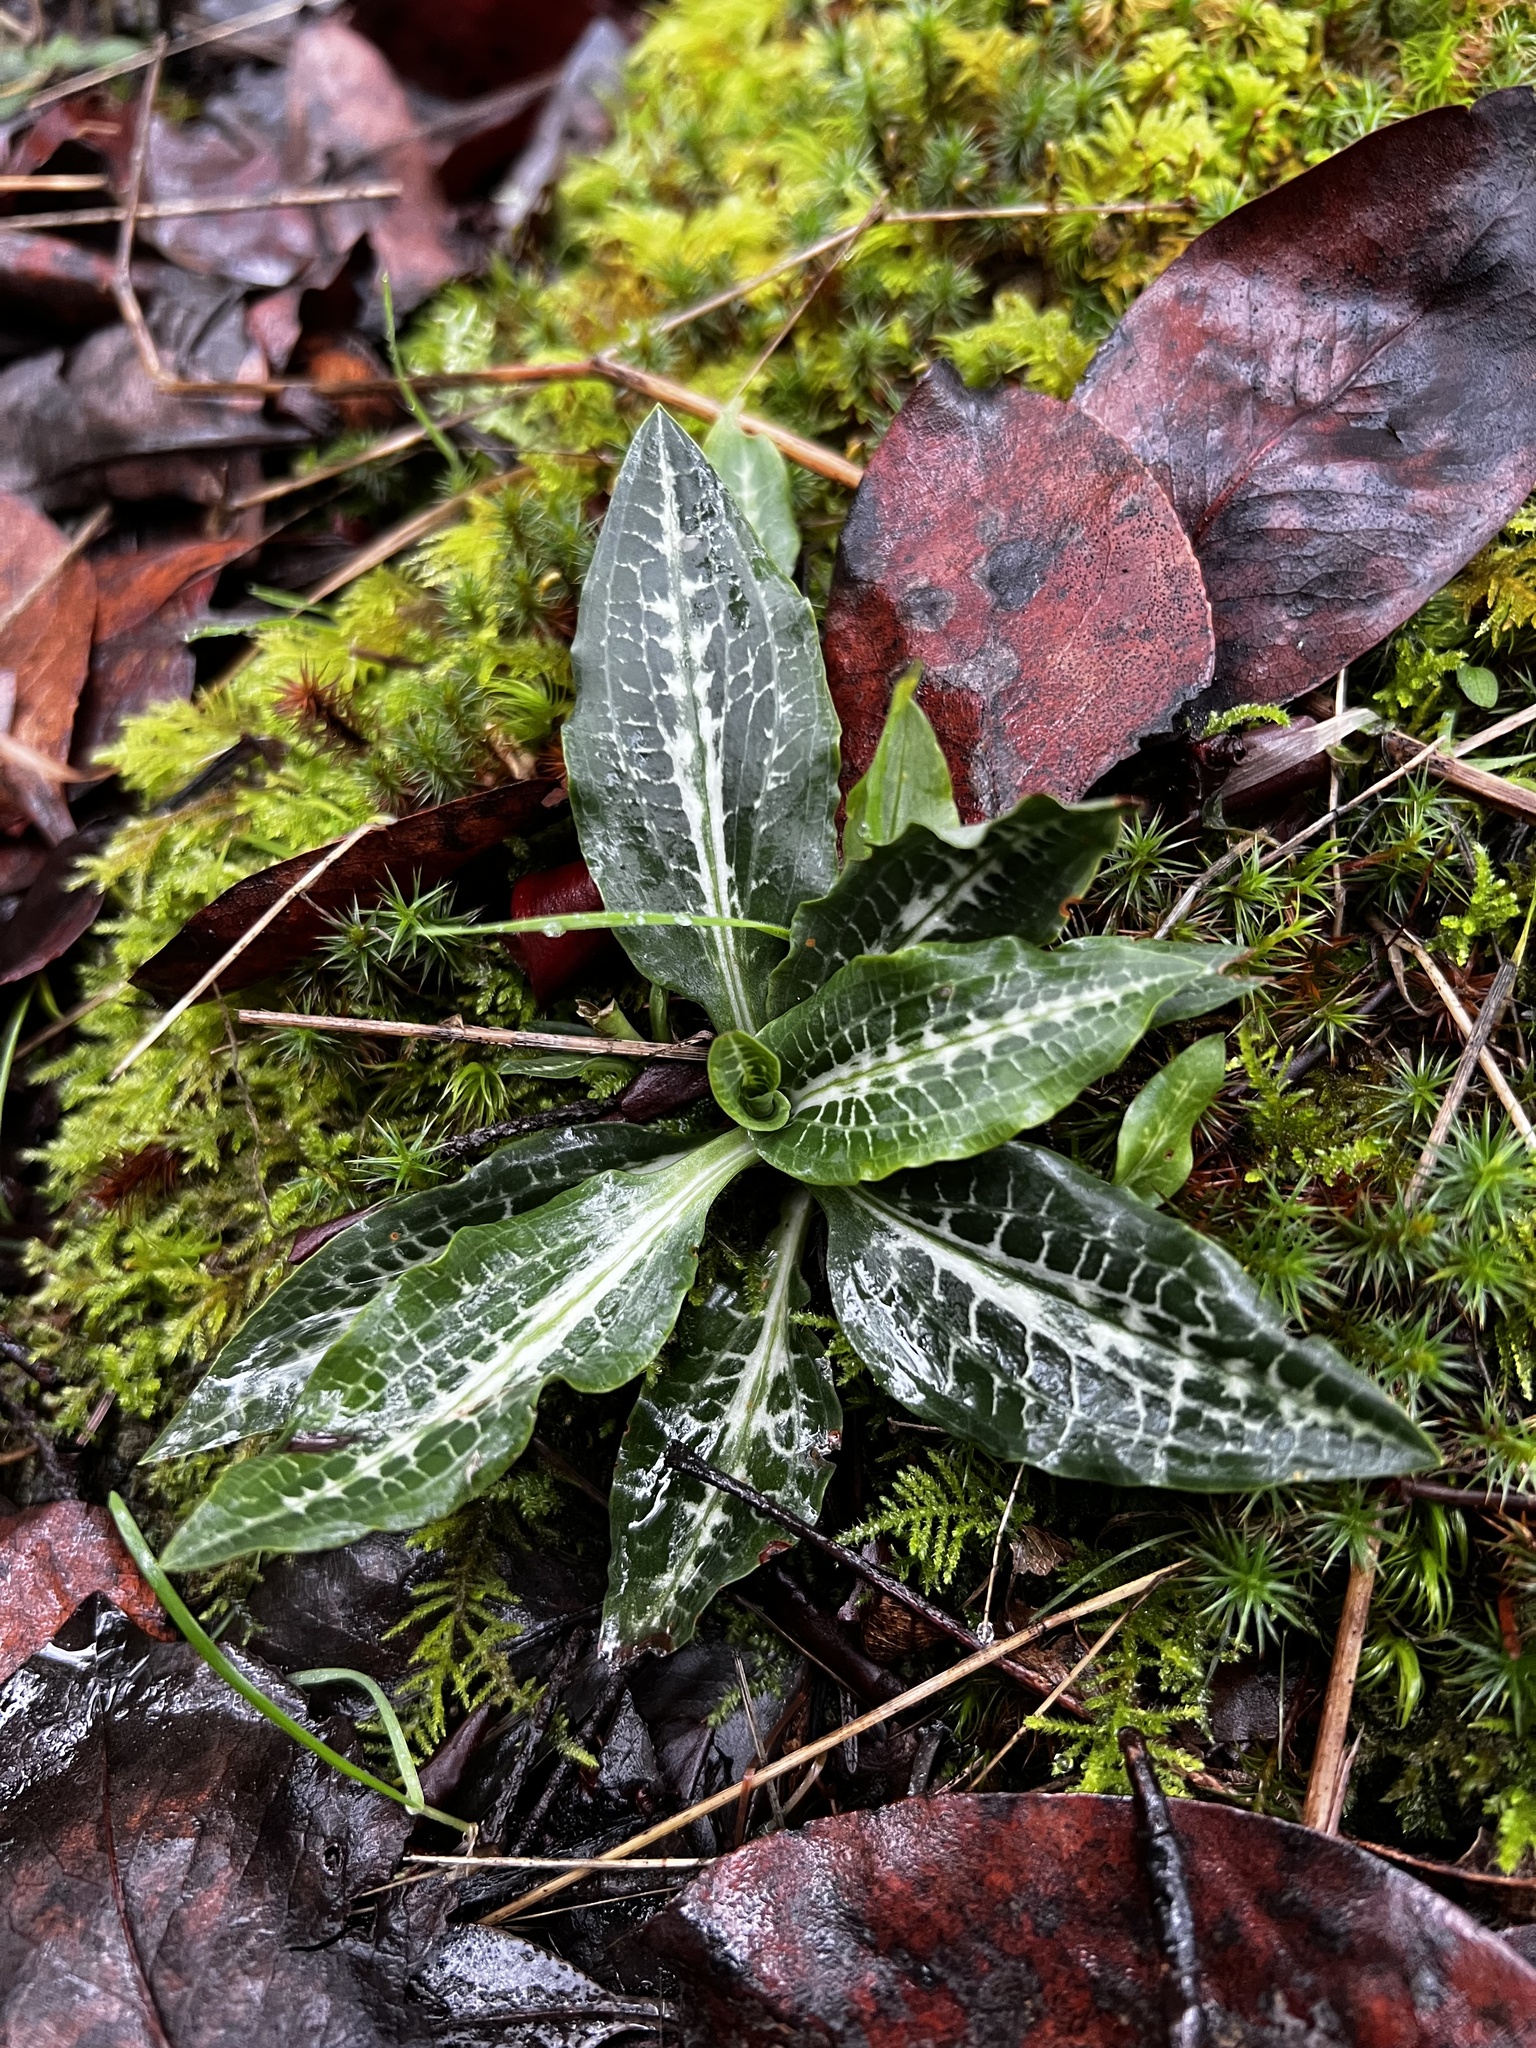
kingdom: Plantae
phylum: Tracheophyta
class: Liliopsida
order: Asparagales
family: Orchidaceae
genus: Goodyera
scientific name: Goodyera oblongifolia
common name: Giant rattlesnake-plantain
